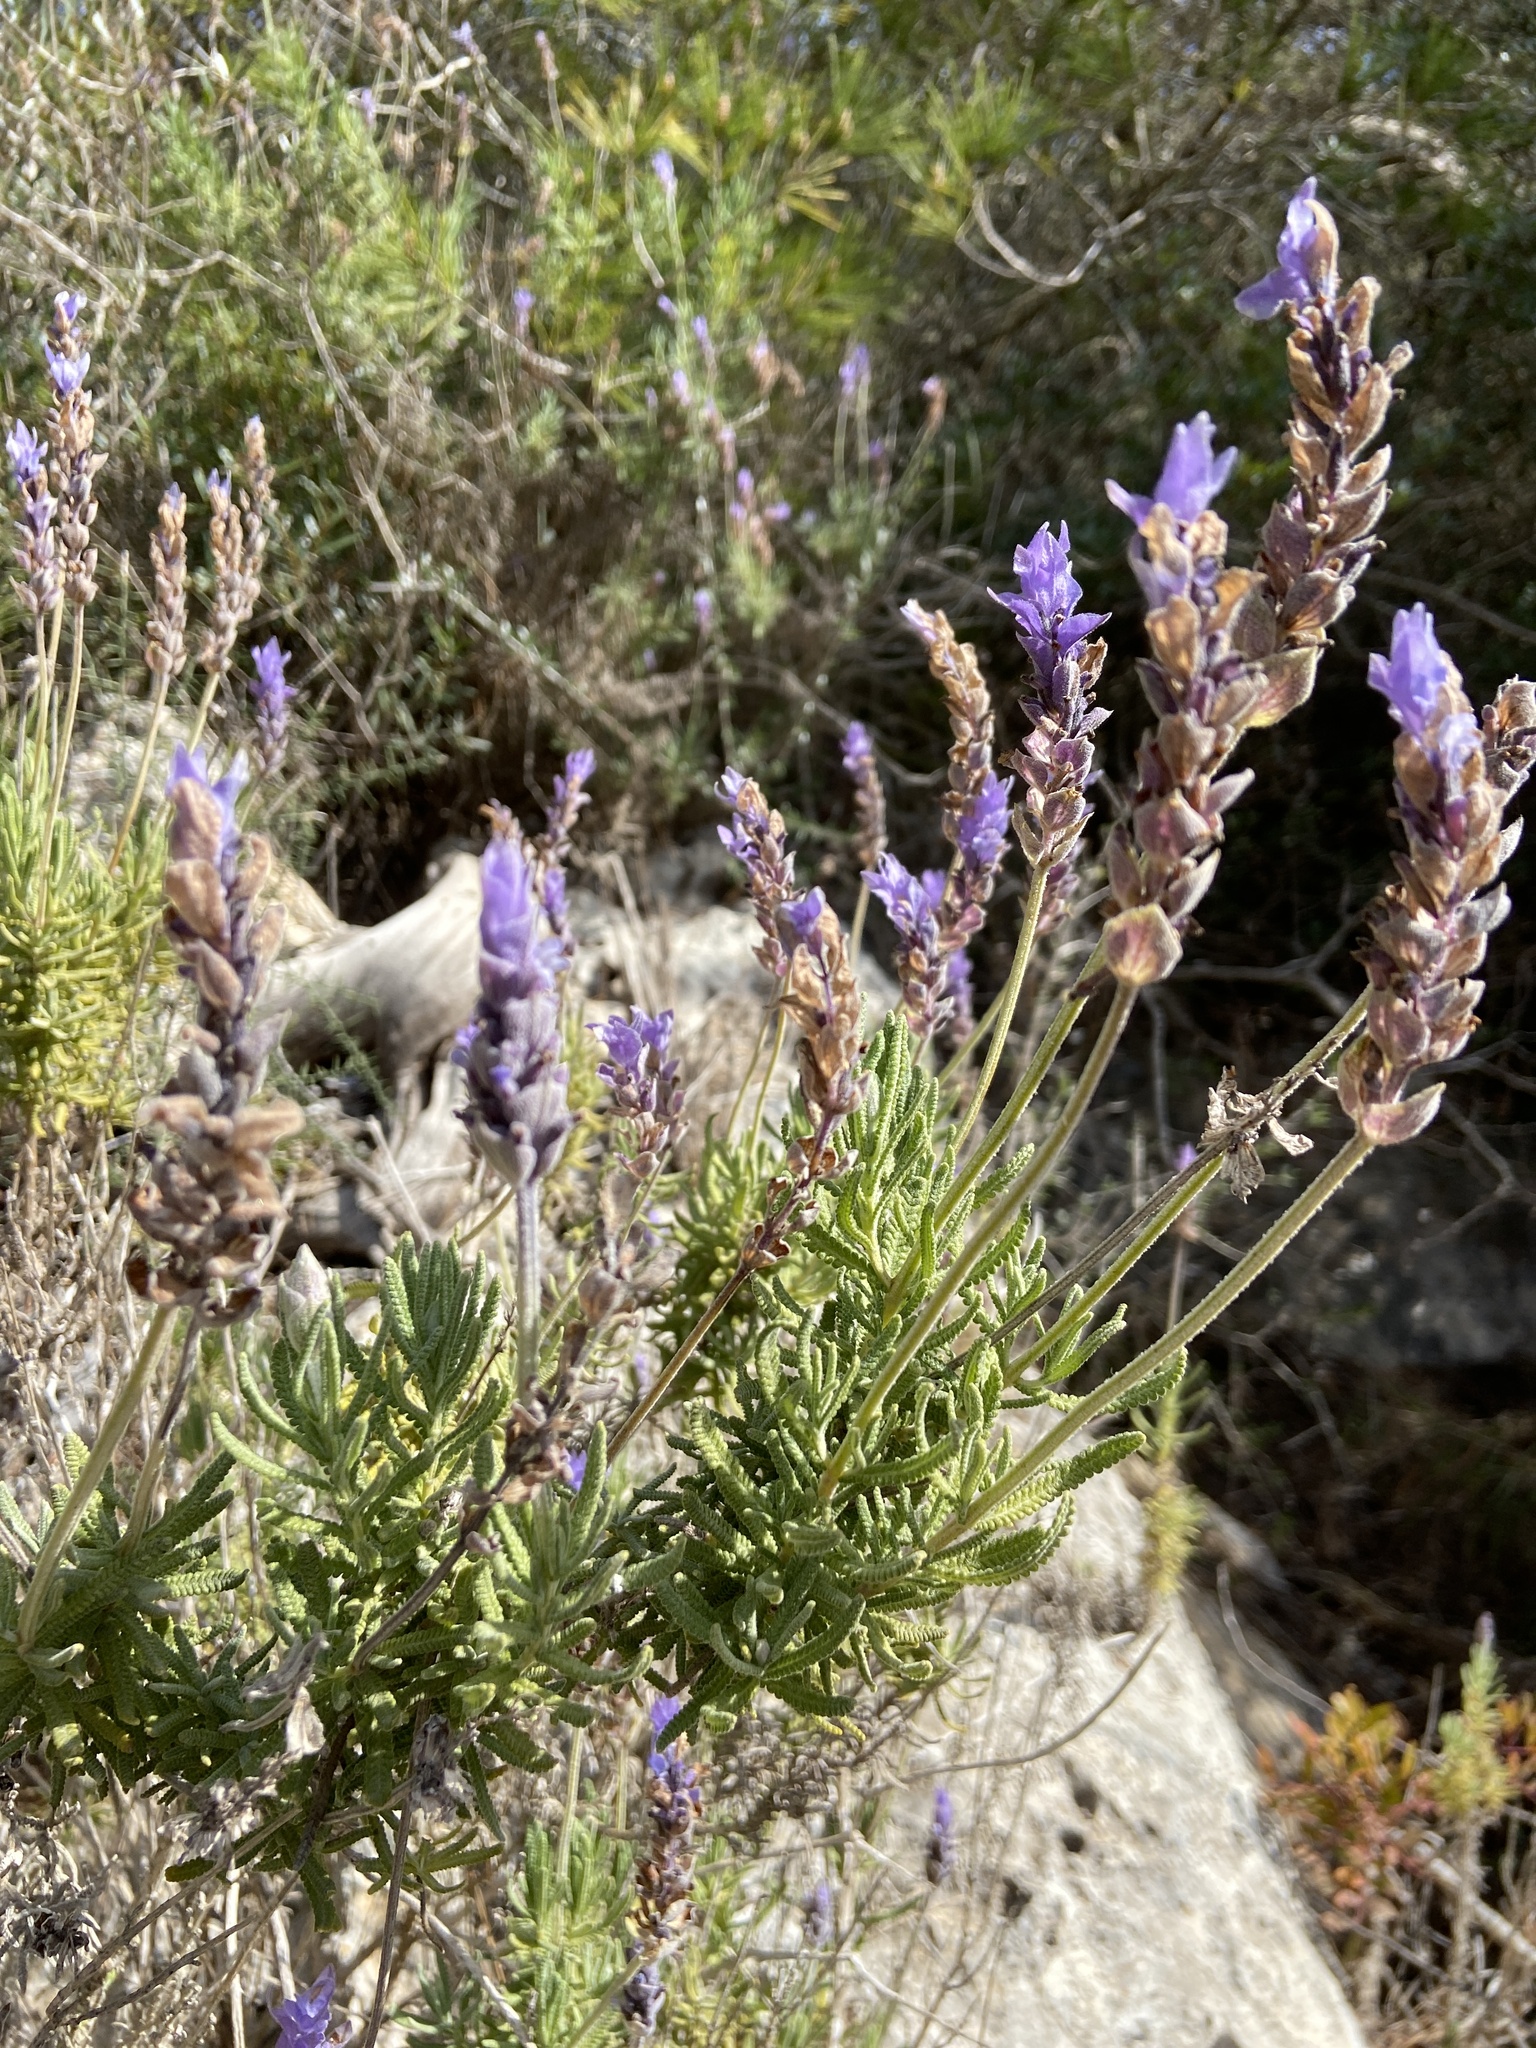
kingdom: Plantae
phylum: Tracheophyta
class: Magnoliopsida
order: Lamiales
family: Lamiaceae
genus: Lavandula
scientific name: Lavandula dentata
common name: French lavender
